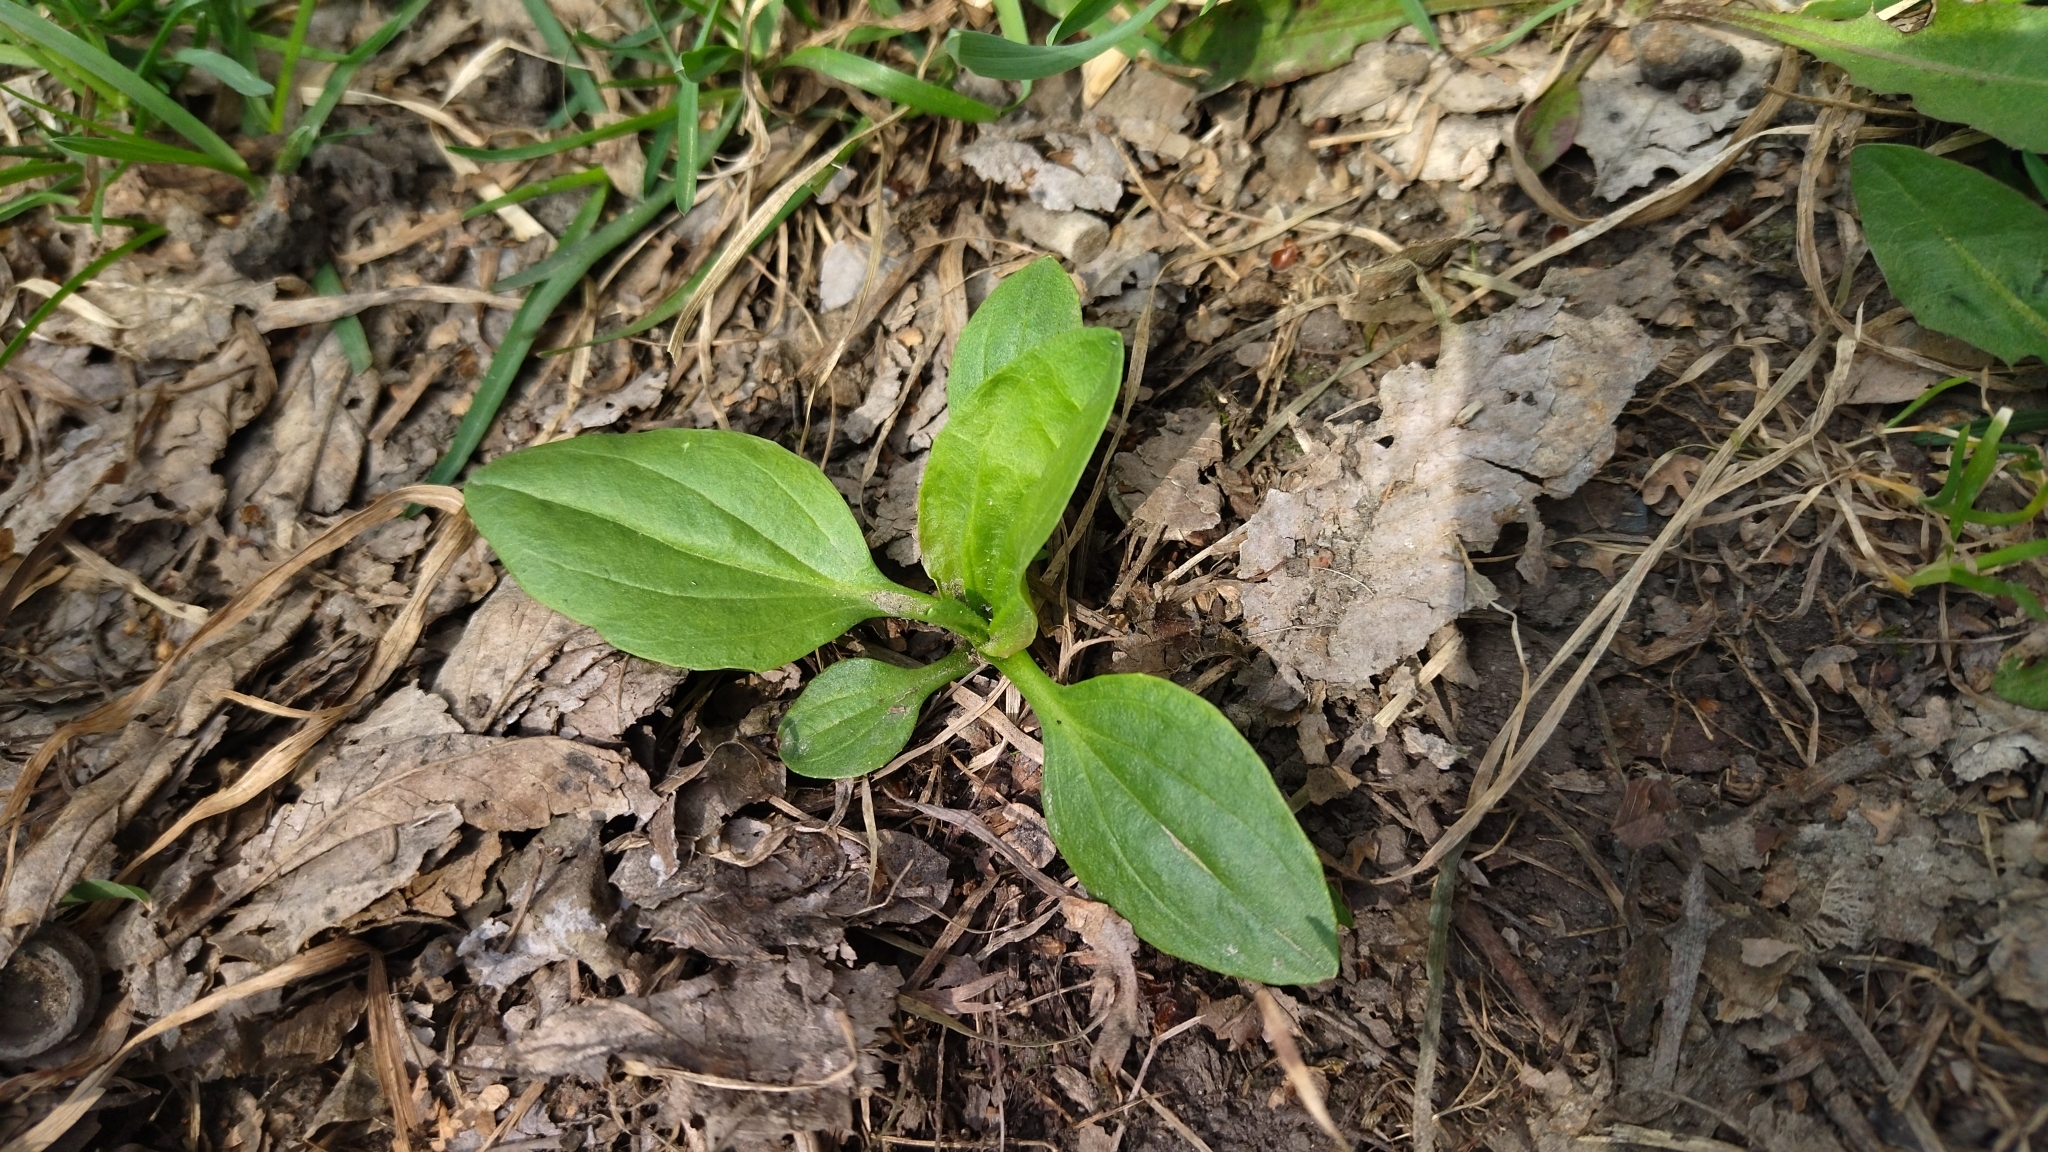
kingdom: Plantae
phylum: Tracheophyta
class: Magnoliopsida
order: Lamiales
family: Plantaginaceae
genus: Plantago
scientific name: Plantago major
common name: Common plantain
